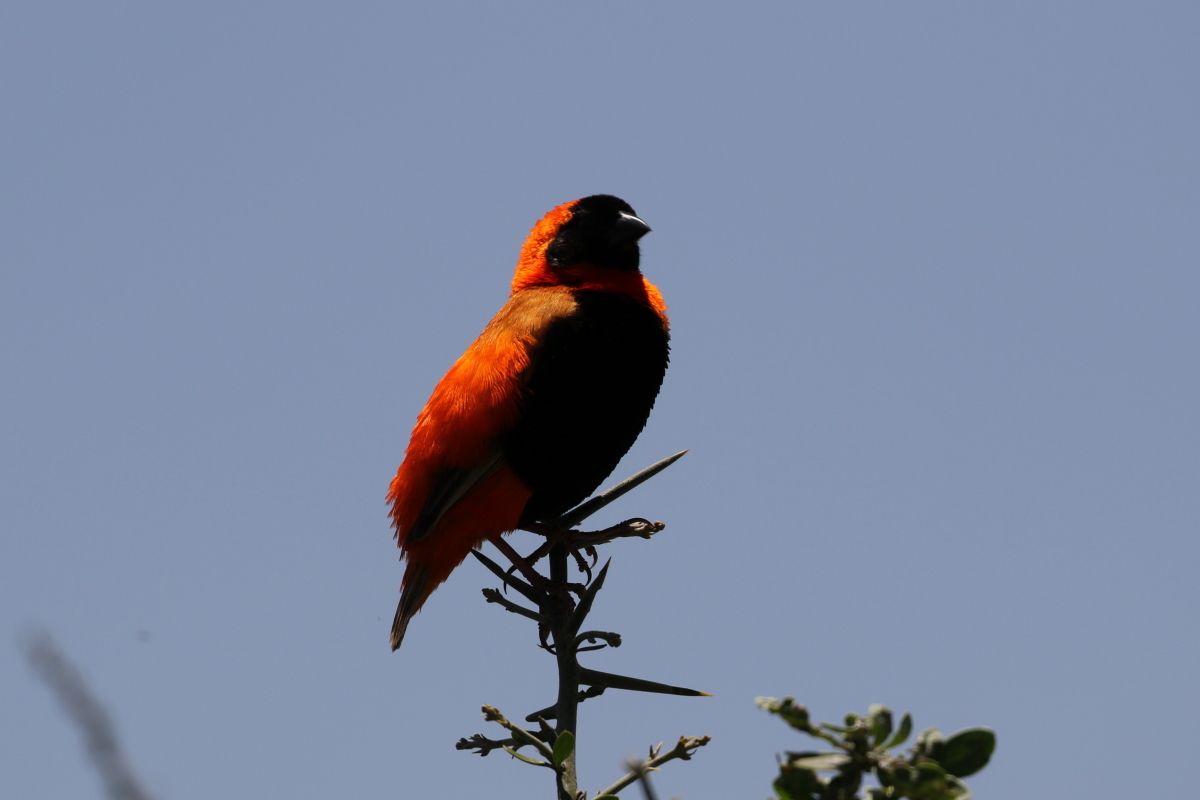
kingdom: Animalia
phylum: Chordata
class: Aves
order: Passeriformes
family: Ploceidae
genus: Euplectes
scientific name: Euplectes orix
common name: Southern red bishop
